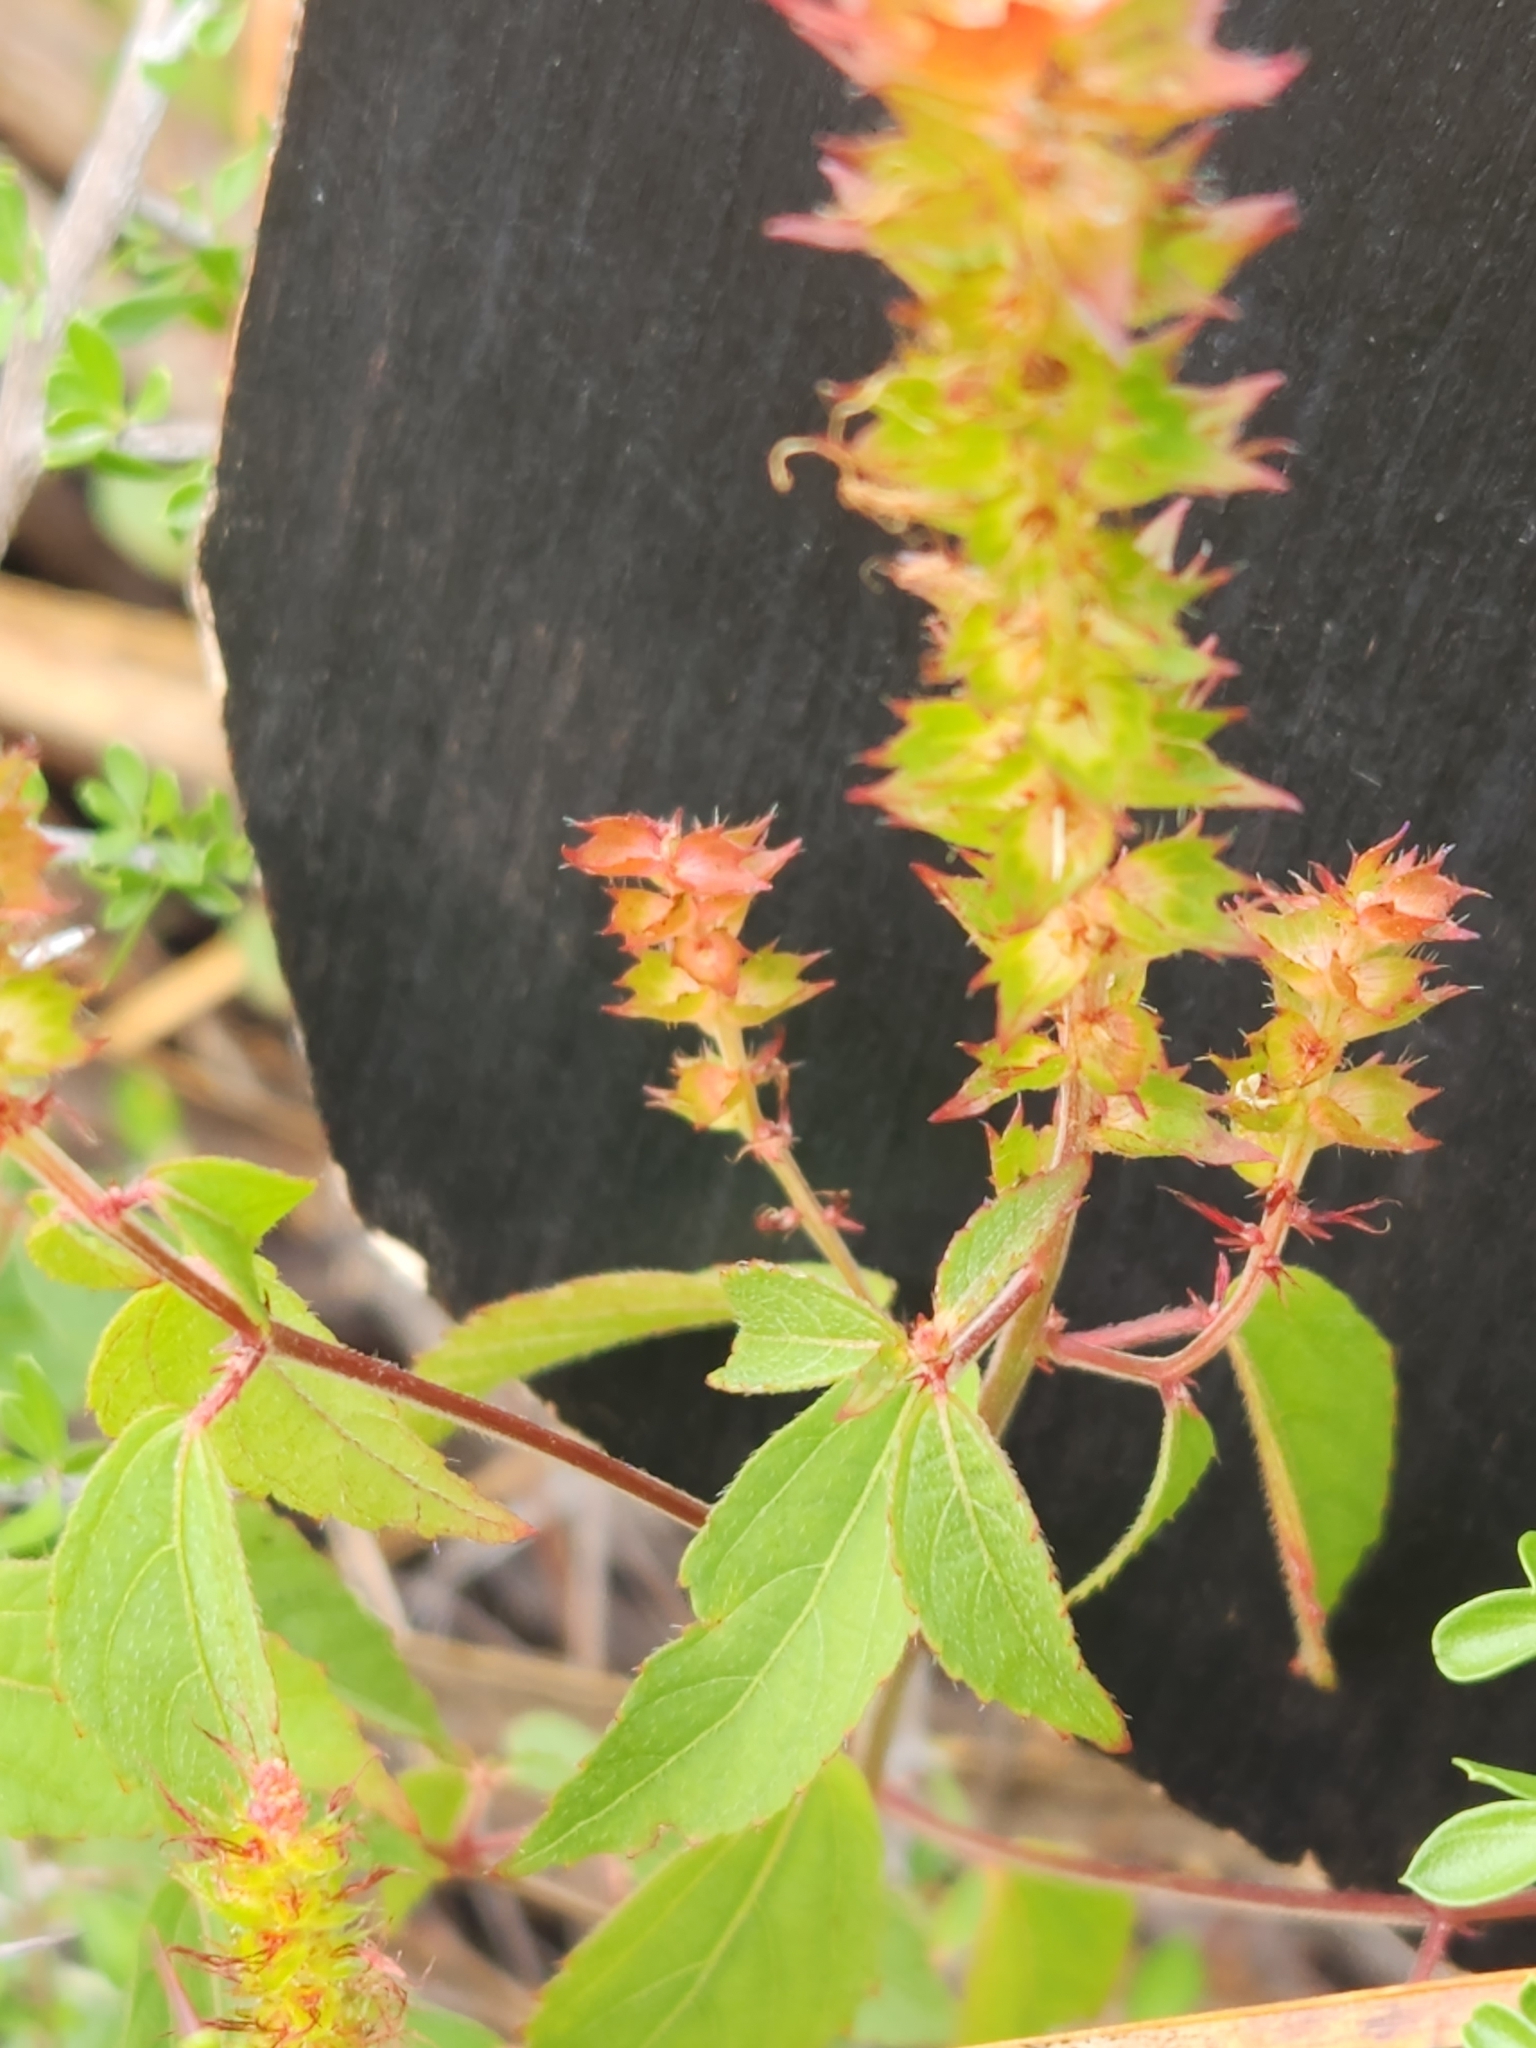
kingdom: Plantae
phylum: Tracheophyta
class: Magnoliopsida
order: Malpighiales
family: Euphorbiaceae
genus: Acalypha
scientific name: Acalypha phleoides
